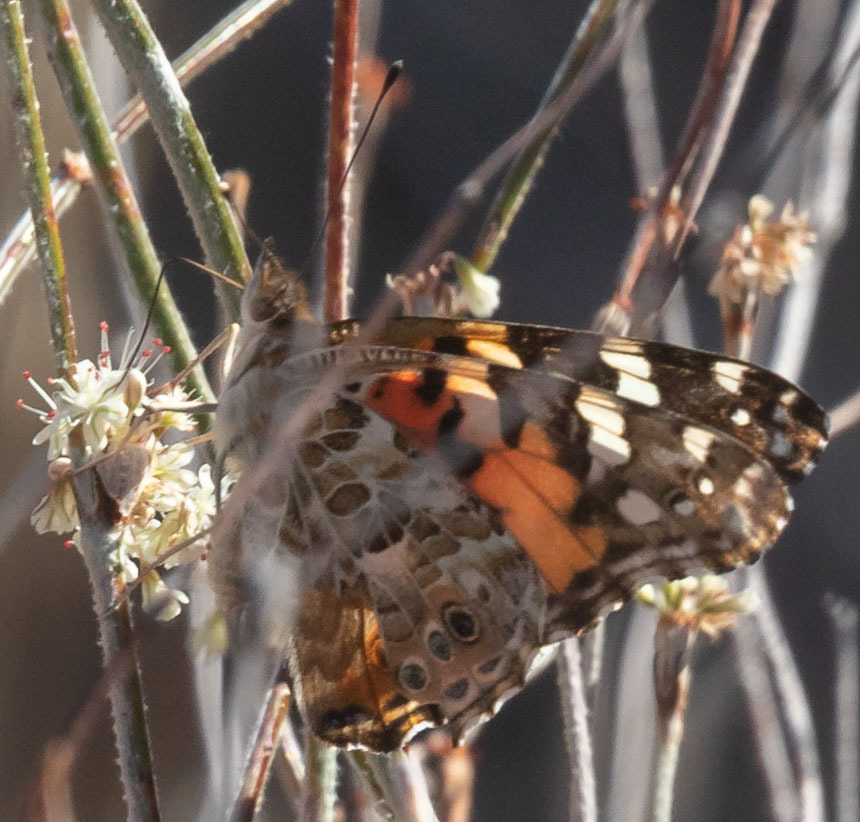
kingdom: Animalia
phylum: Arthropoda
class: Insecta
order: Lepidoptera
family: Nymphalidae
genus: Vanessa
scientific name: Vanessa cardui
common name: Painted lady
